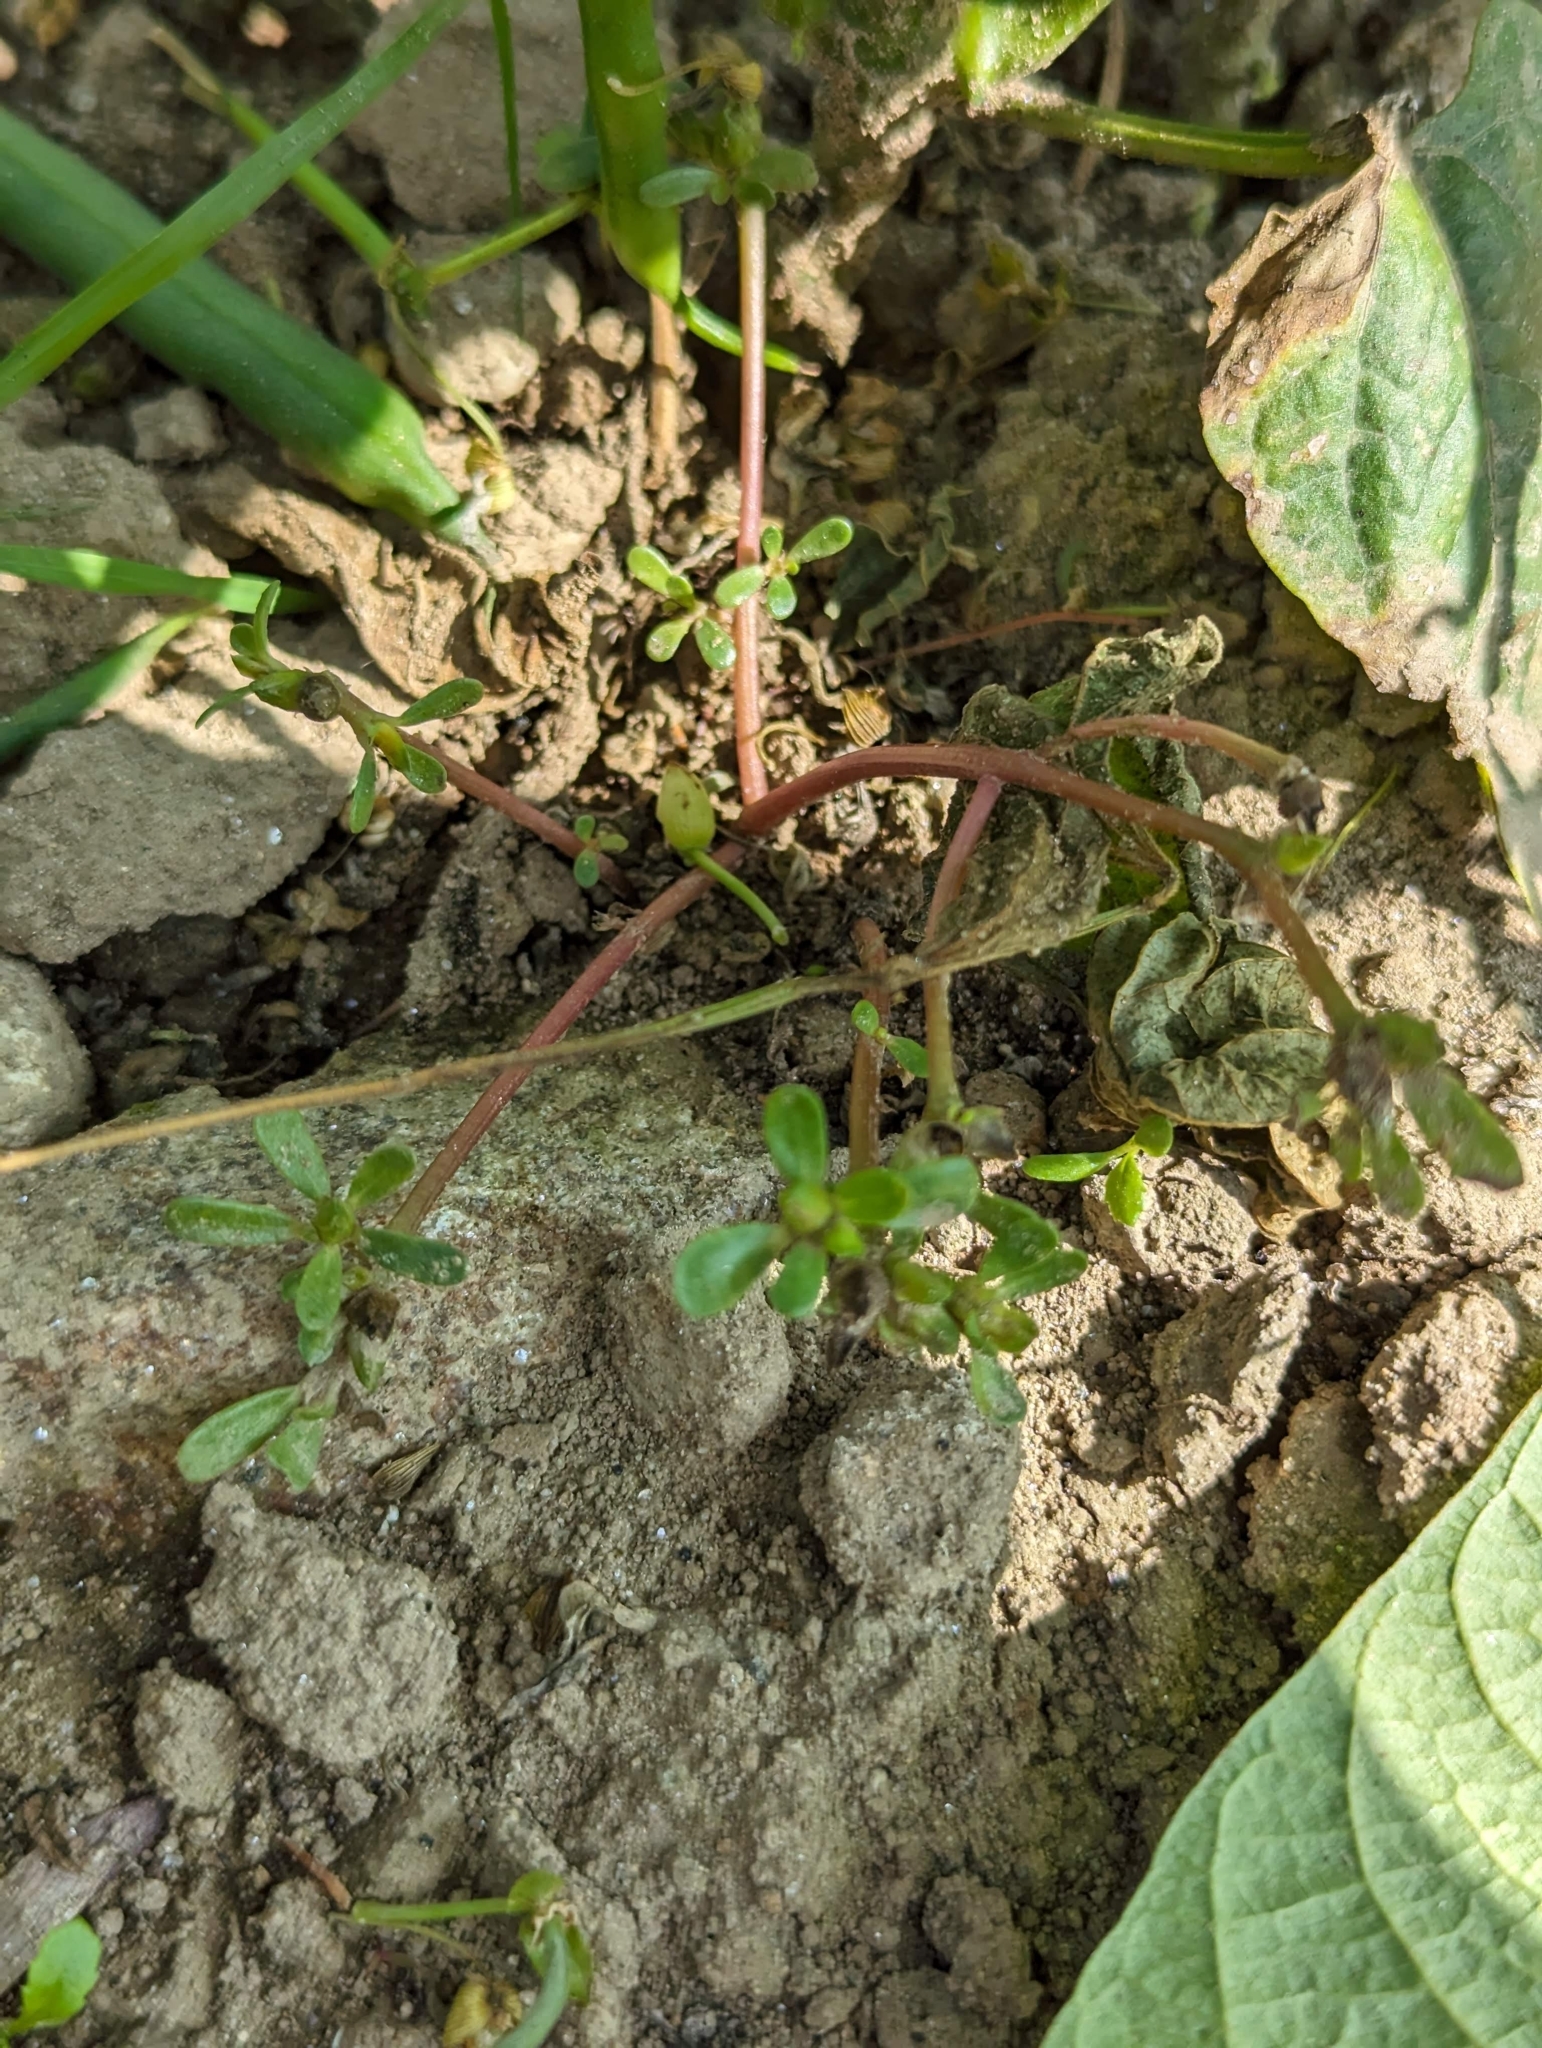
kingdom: Plantae
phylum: Tracheophyta
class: Magnoliopsida
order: Caryophyllales
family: Portulacaceae
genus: Portulaca
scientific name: Portulaca oleracea
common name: Common purslane
